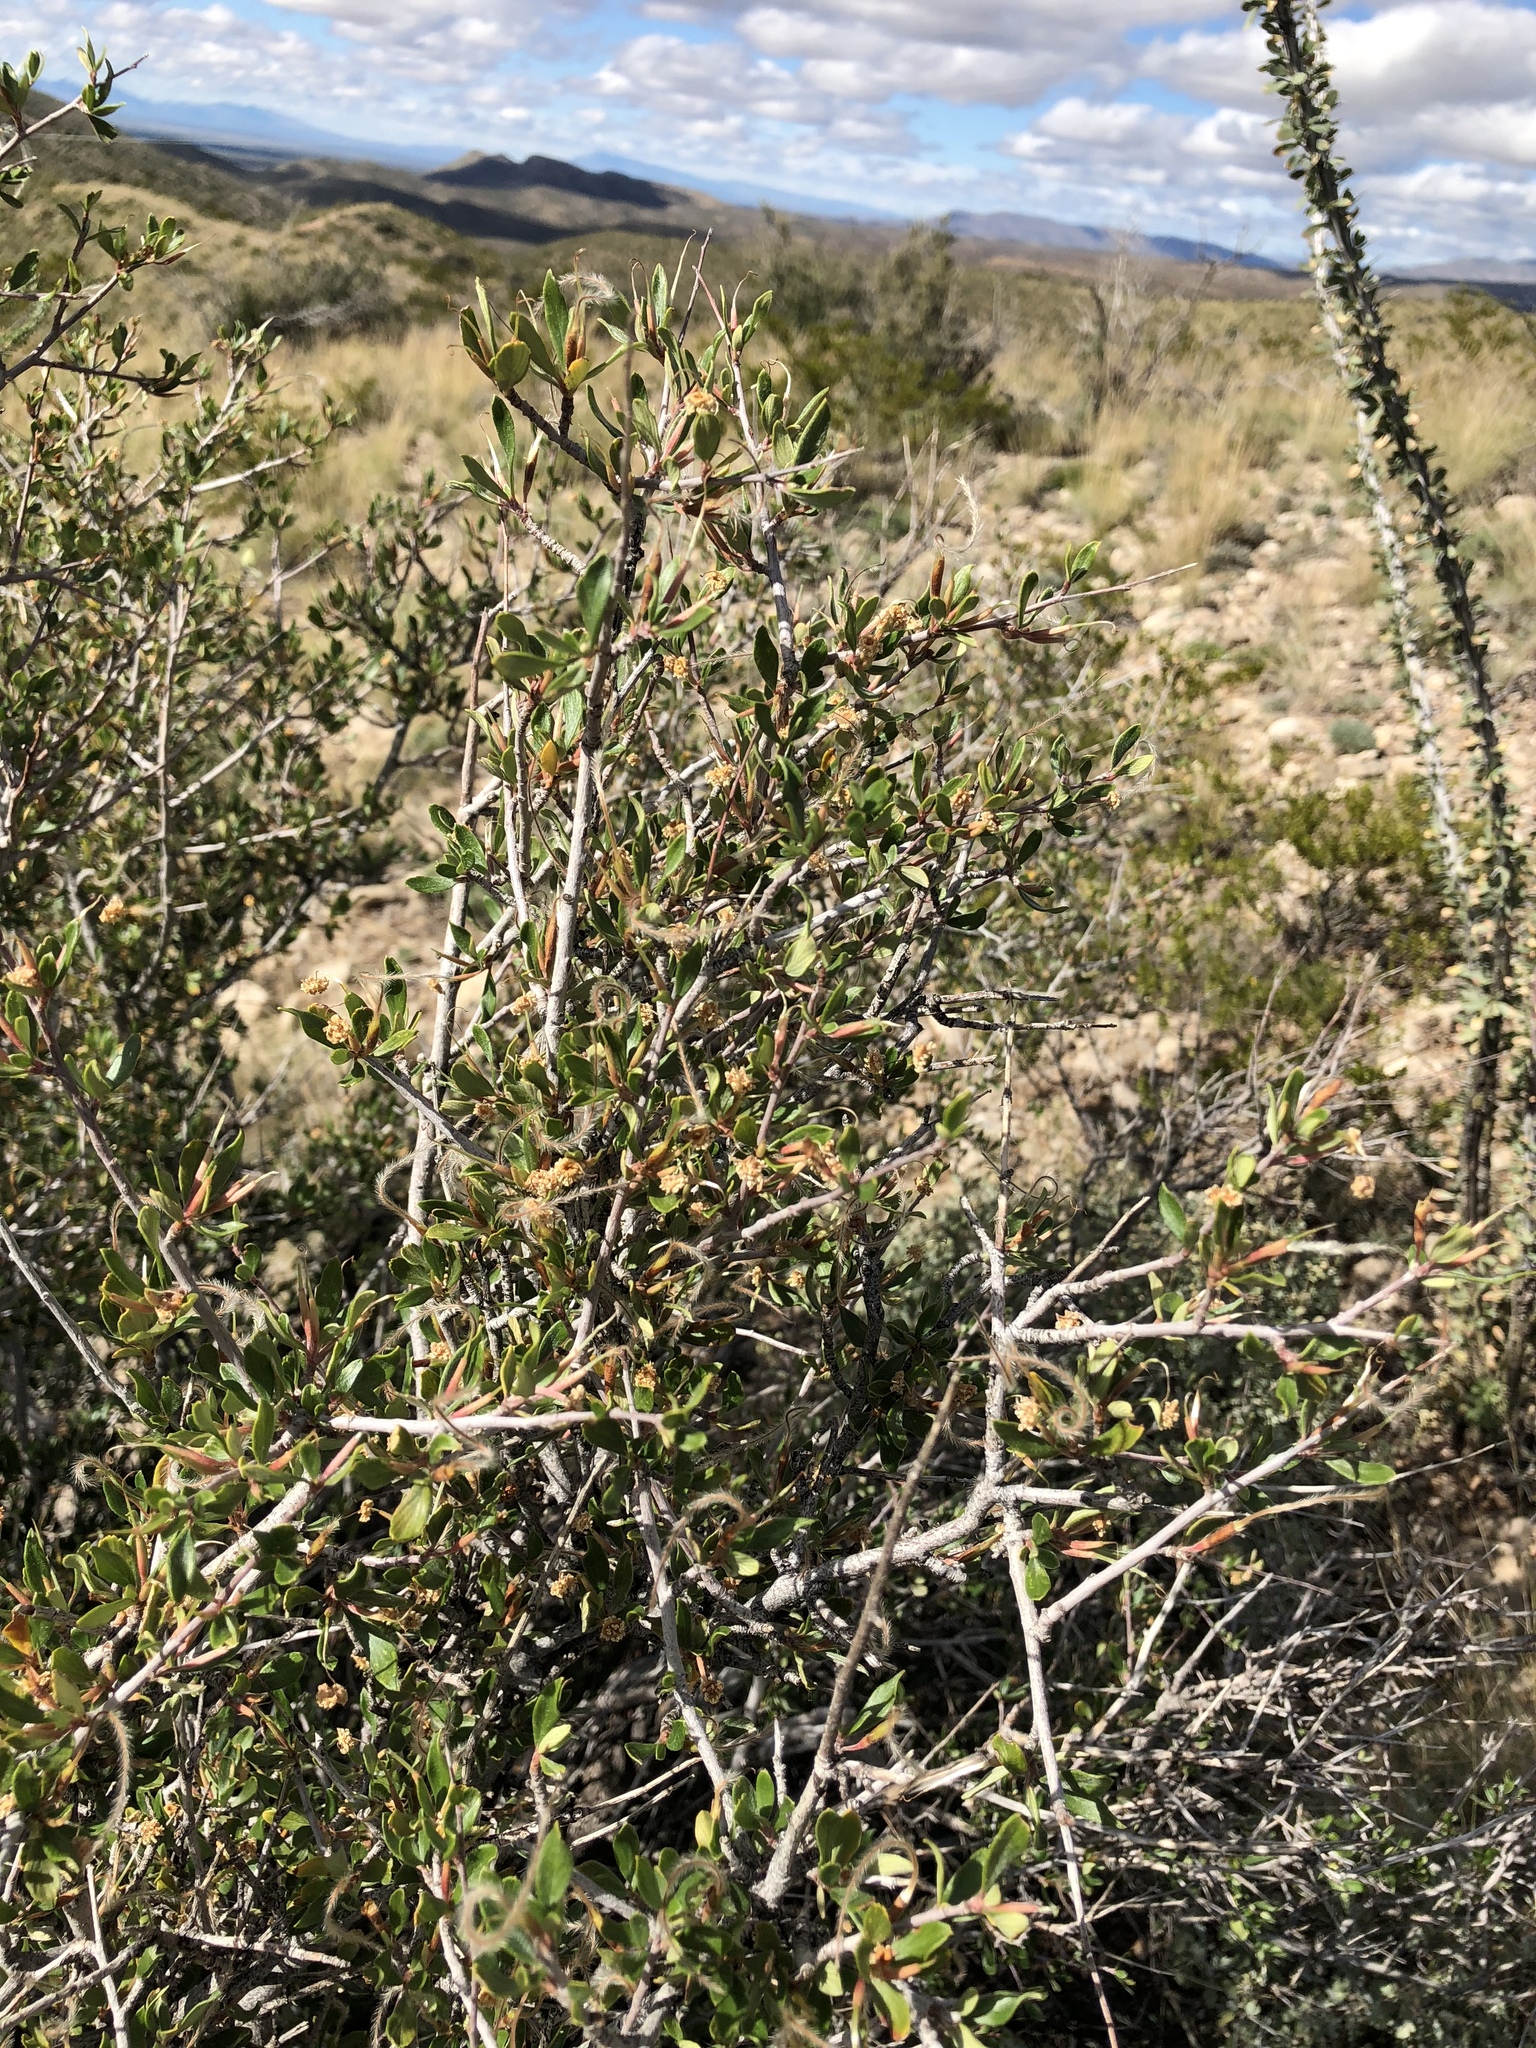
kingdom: Plantae
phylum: Tracheophyta
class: Magnoliopsida
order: Rosales
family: Rosaceae
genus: Cercocarpus
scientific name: Cercocarpus breviflorus
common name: Wright's mountain-mahogany
